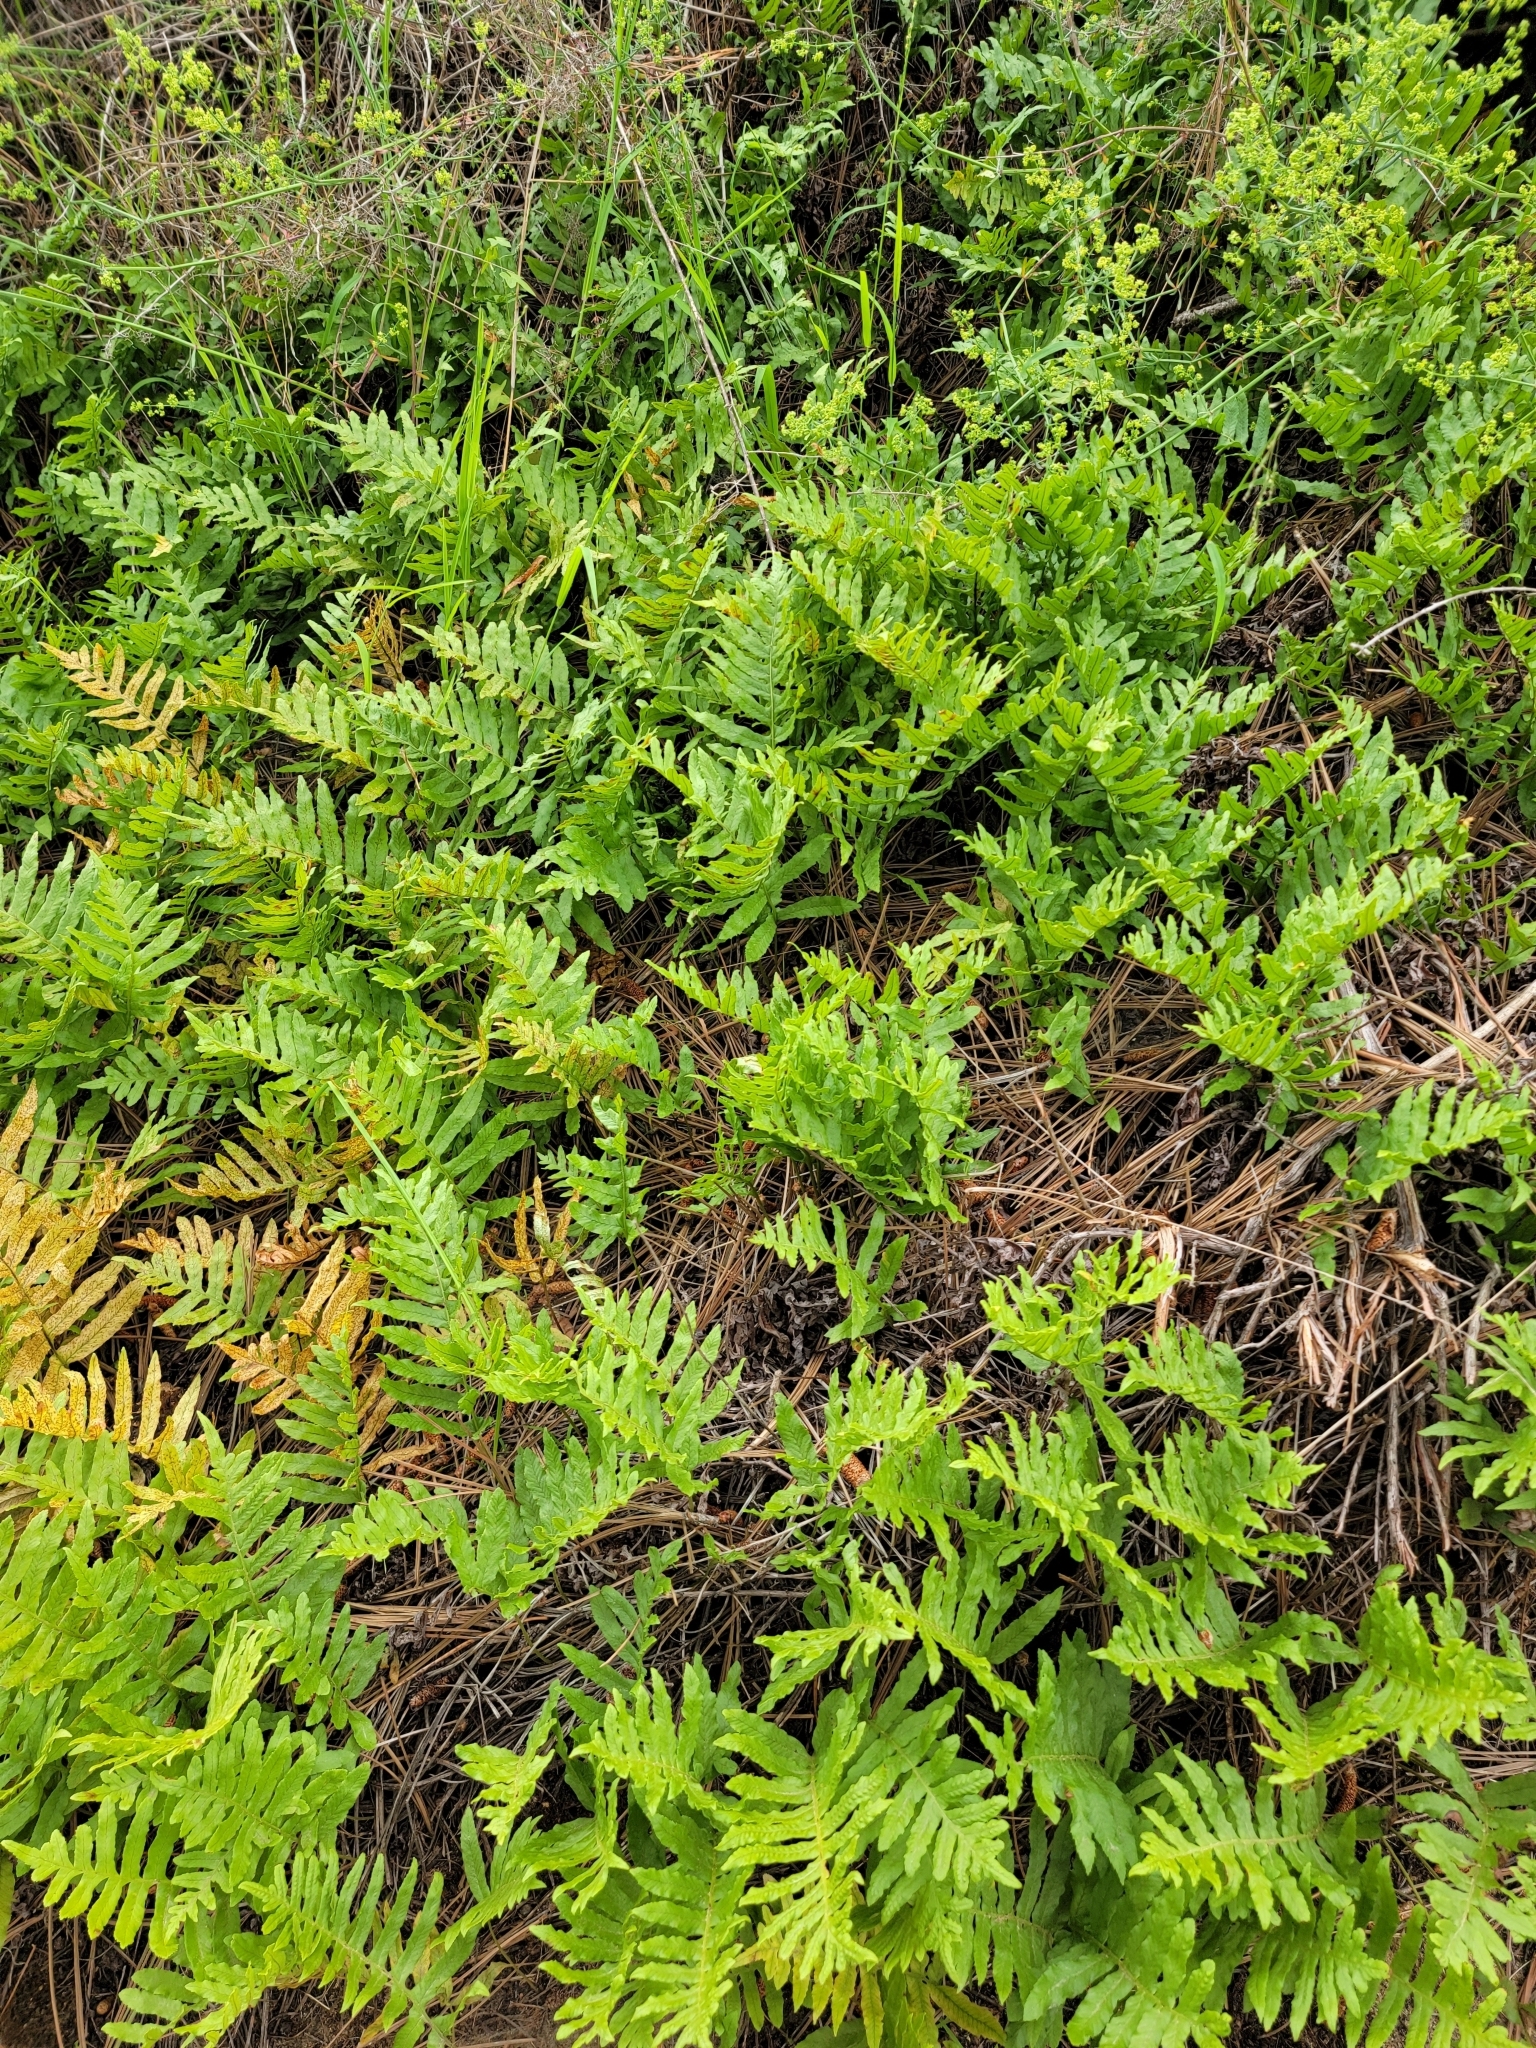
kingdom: Plantae
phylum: Tracheophyta
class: Polypodiopsida
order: Polypodiales
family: Polypodiaceae
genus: Polypodium
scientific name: Polypodium californicum
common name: California polypody
